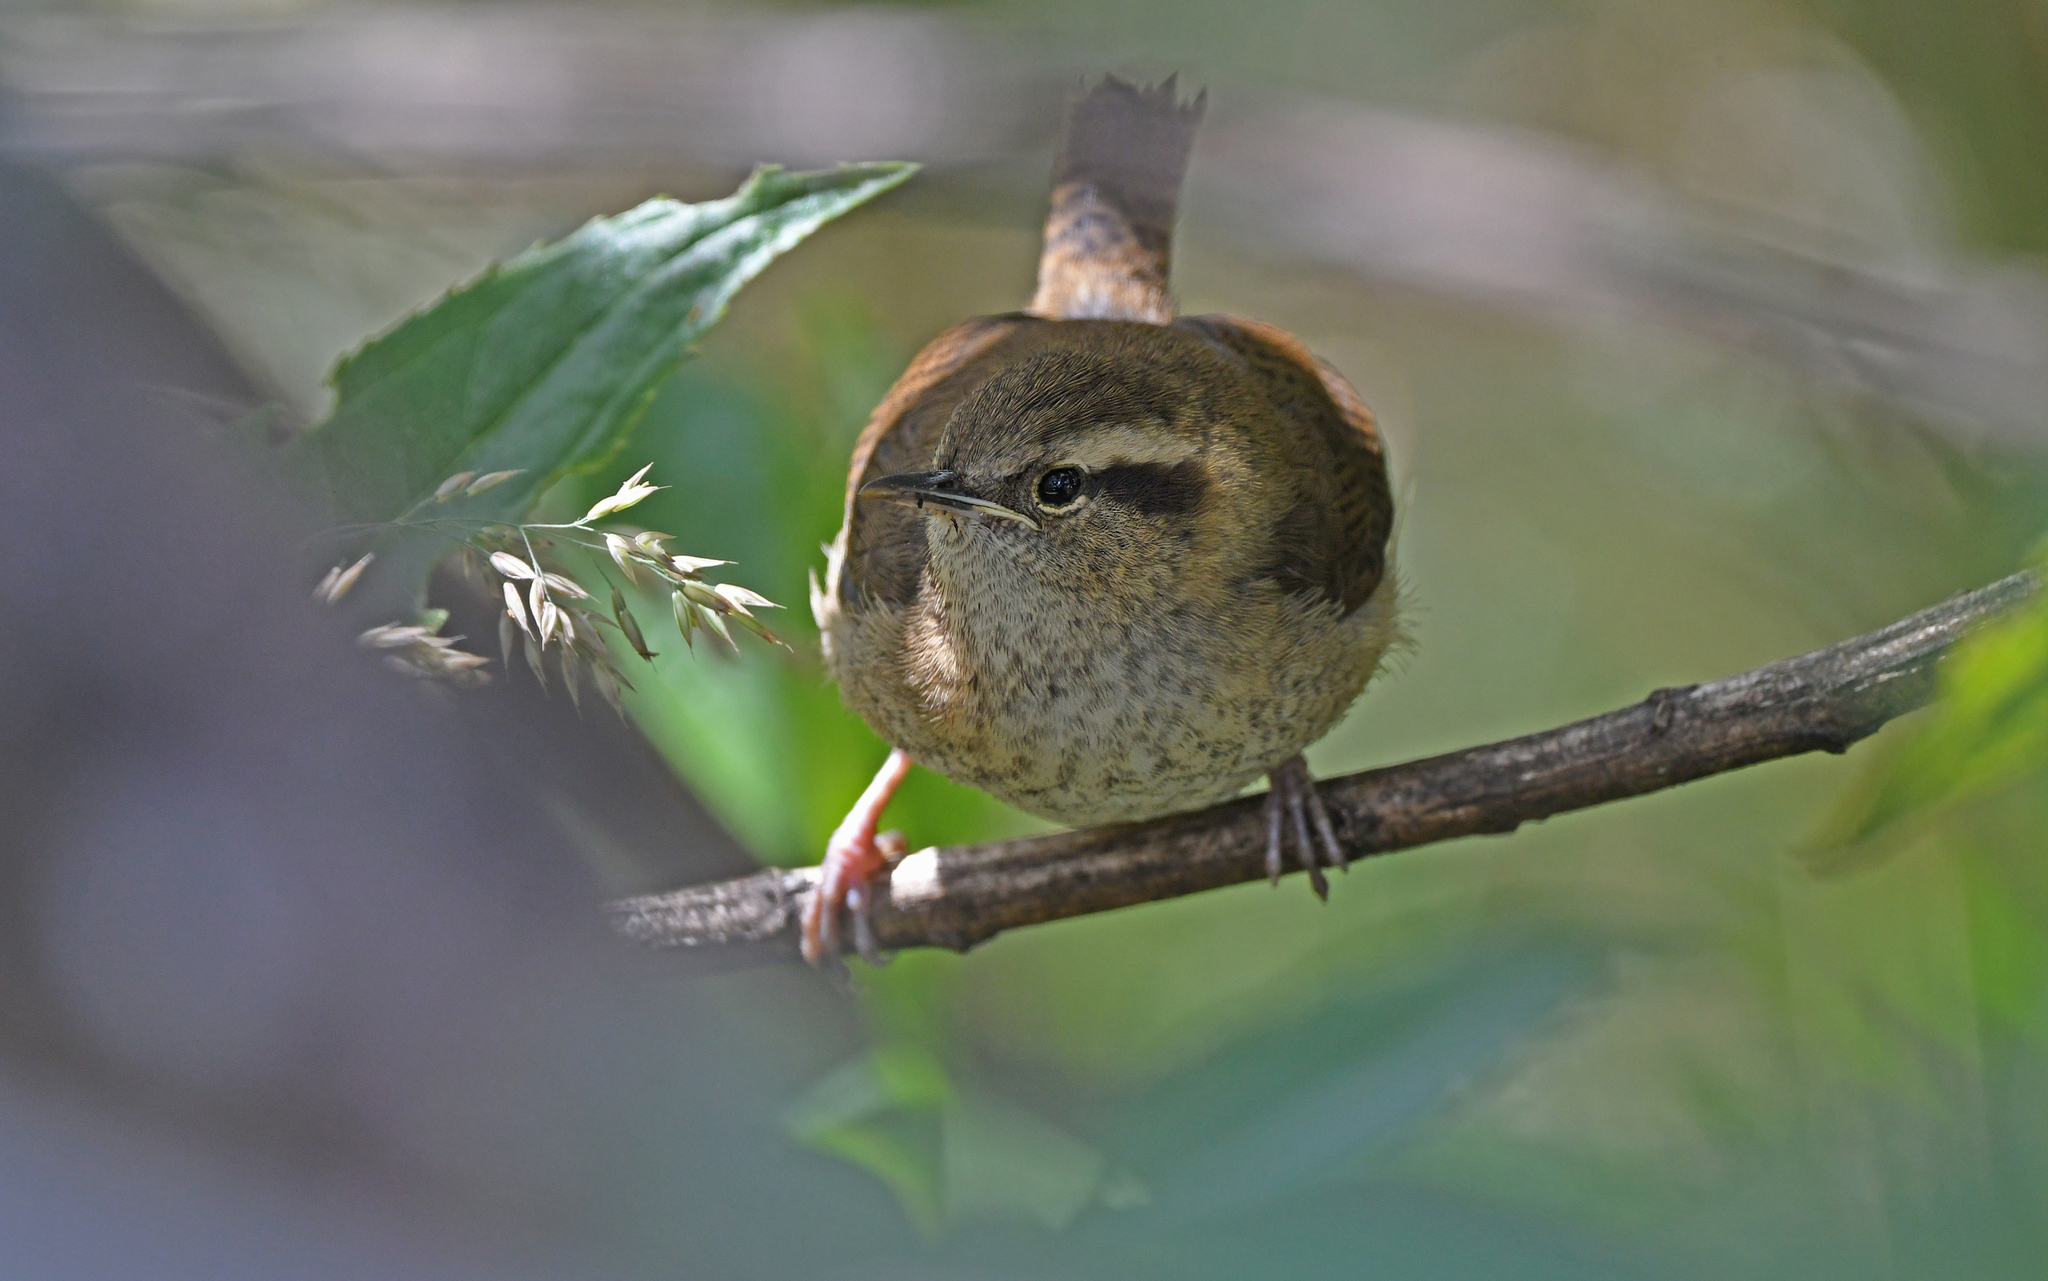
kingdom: Animalia
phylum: Chordata
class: Aves
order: Passeriformes
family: Troglodytidae
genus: Troglodytes
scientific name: Troglodytes solstitialis
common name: Mountain wren
